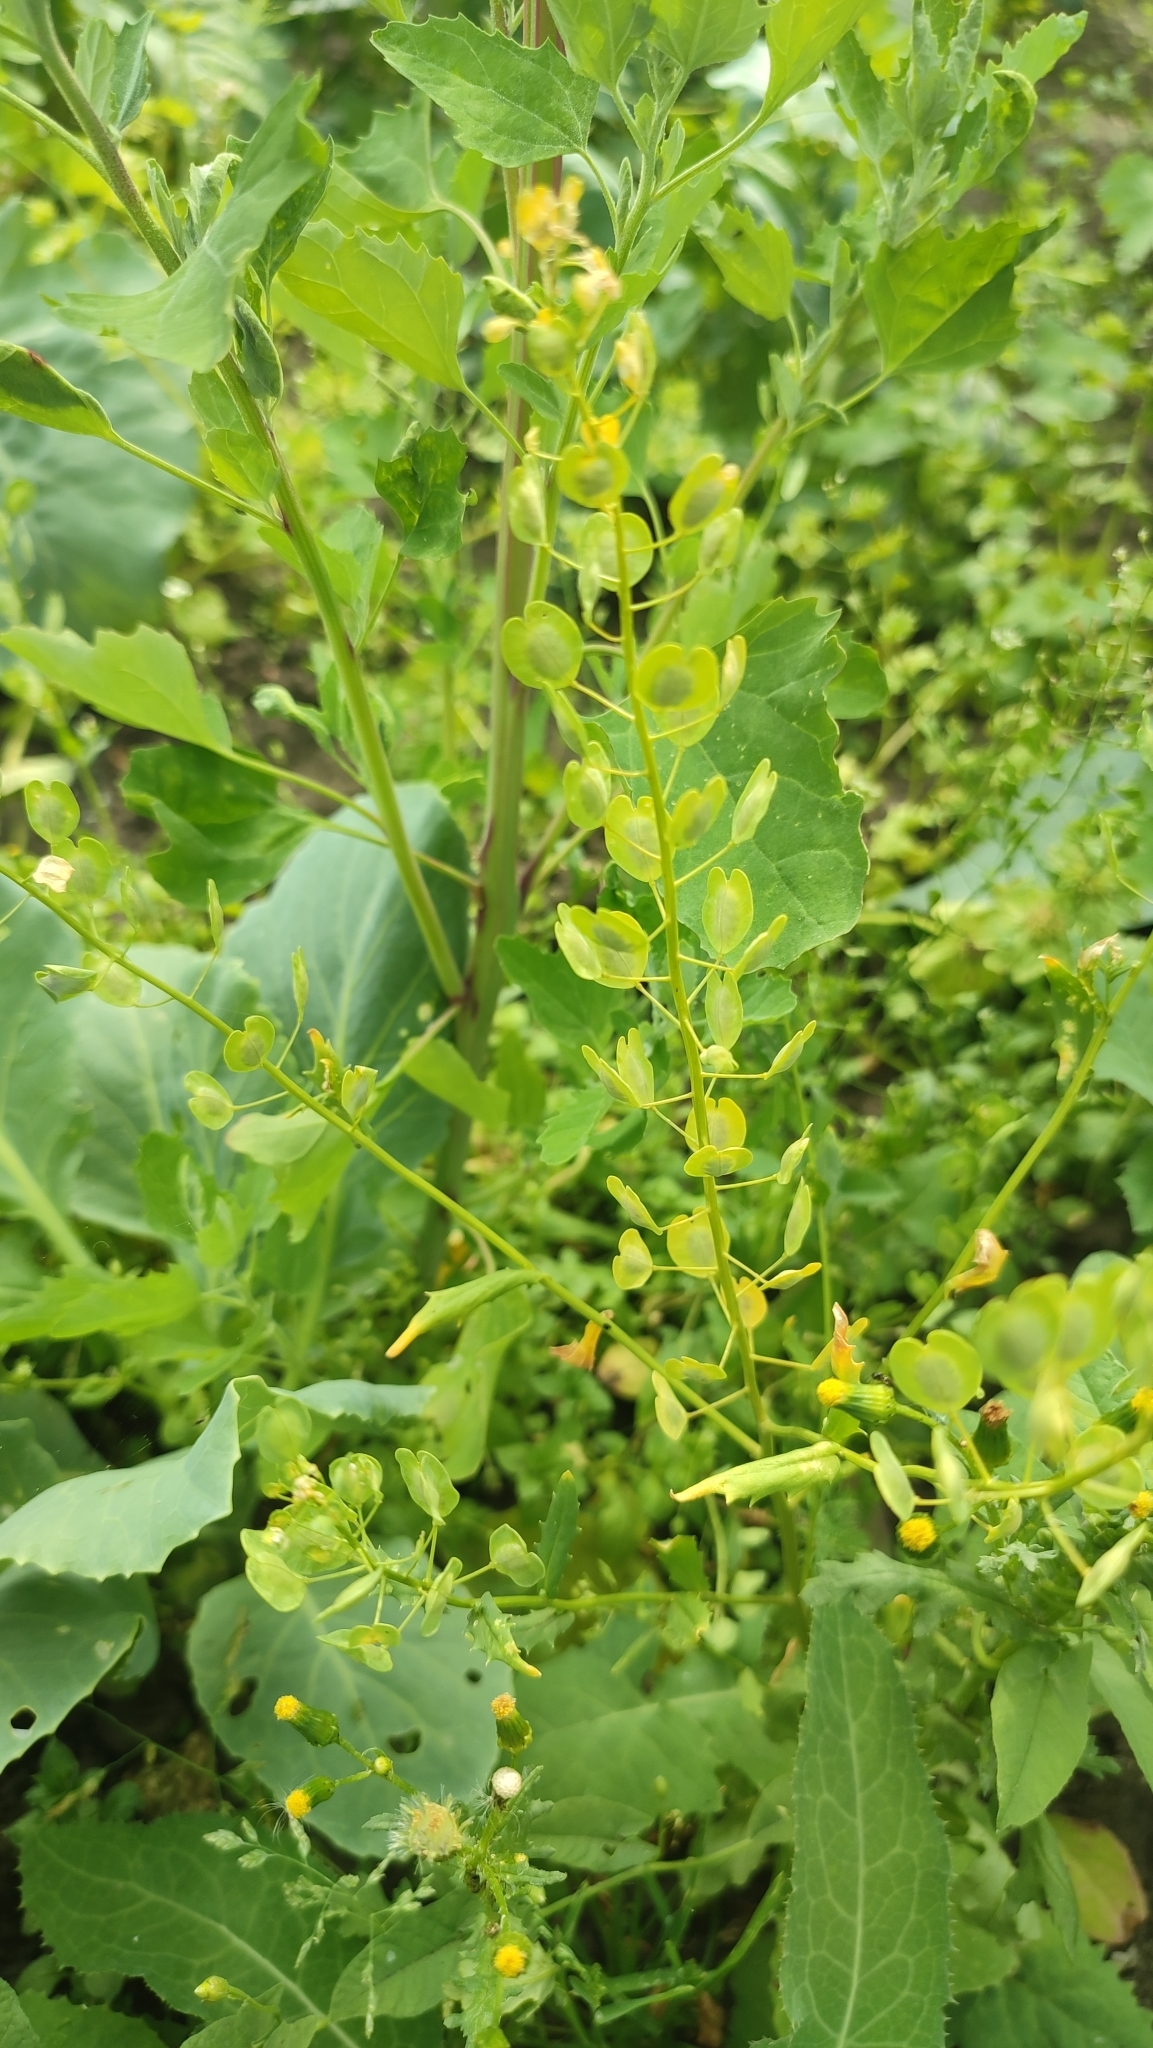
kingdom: Plantae
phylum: Tracheophyta
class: Magnoliopsida
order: Brassicales
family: Brassicaceae
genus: Thlaspi
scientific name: Thlaspi arvense
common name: Field pennycress
